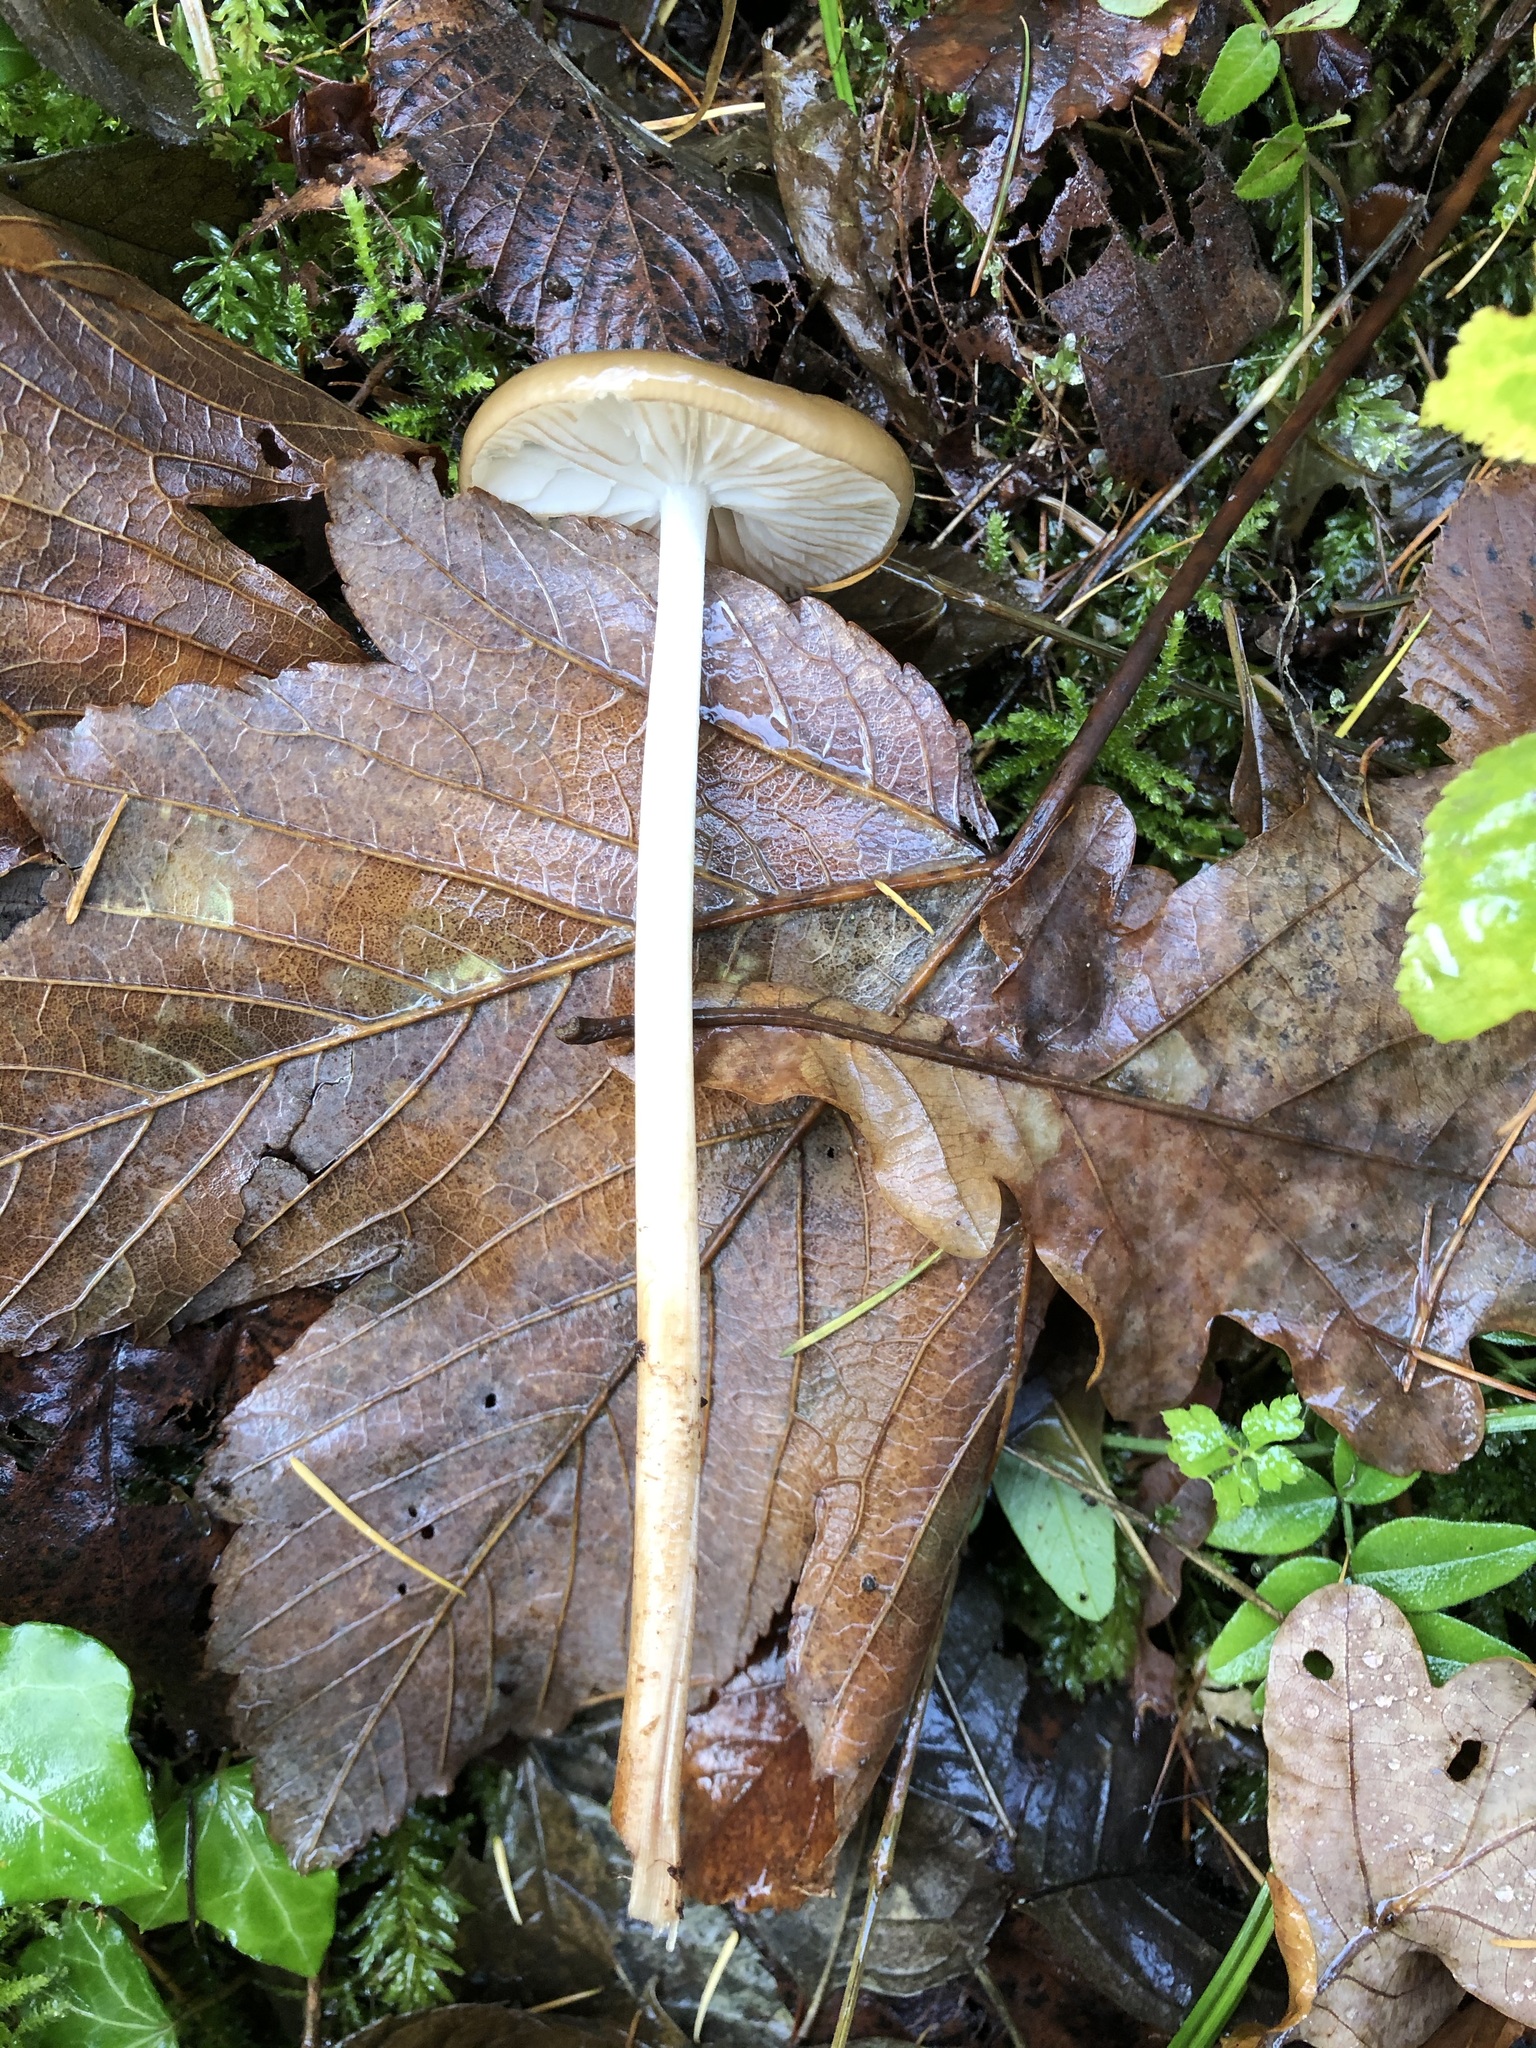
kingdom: Fungi
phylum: Basidiomycota
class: Agaricomycetes
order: Agaricales
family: Physalacriaceae
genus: Hymenopellis
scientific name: Hymenopellis radicata
